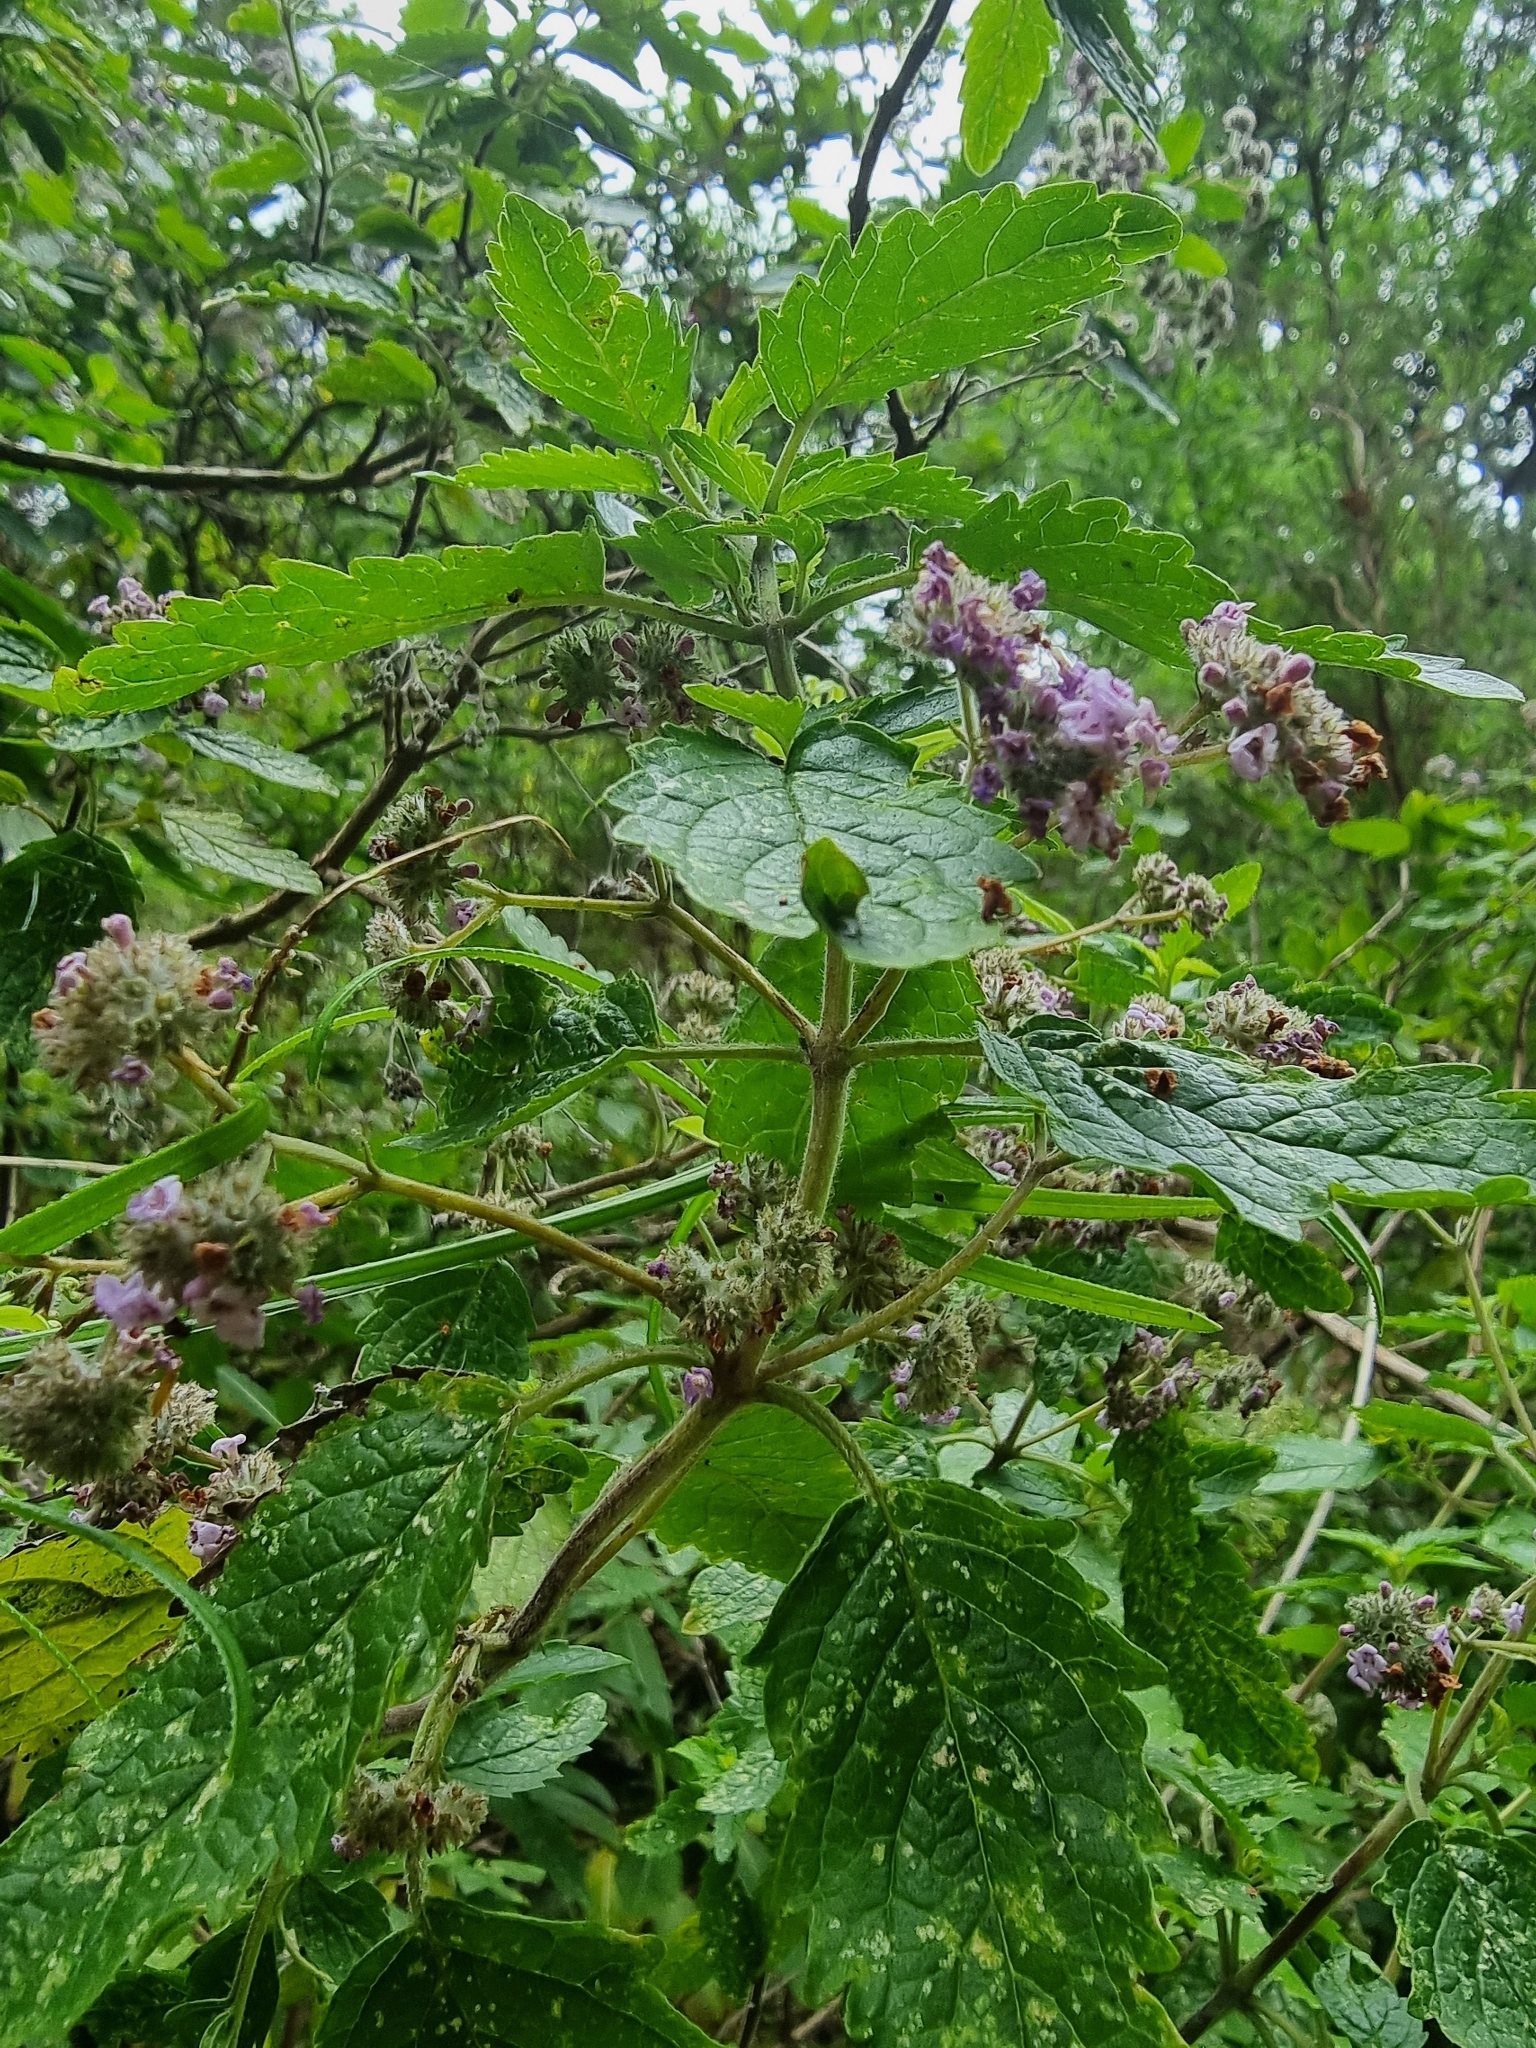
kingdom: Plantae
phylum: Tracheophyta
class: Magnoliopsida
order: Lamiales
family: Lamiaceae
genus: Bystropogon
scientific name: Bystropogon punctatus
